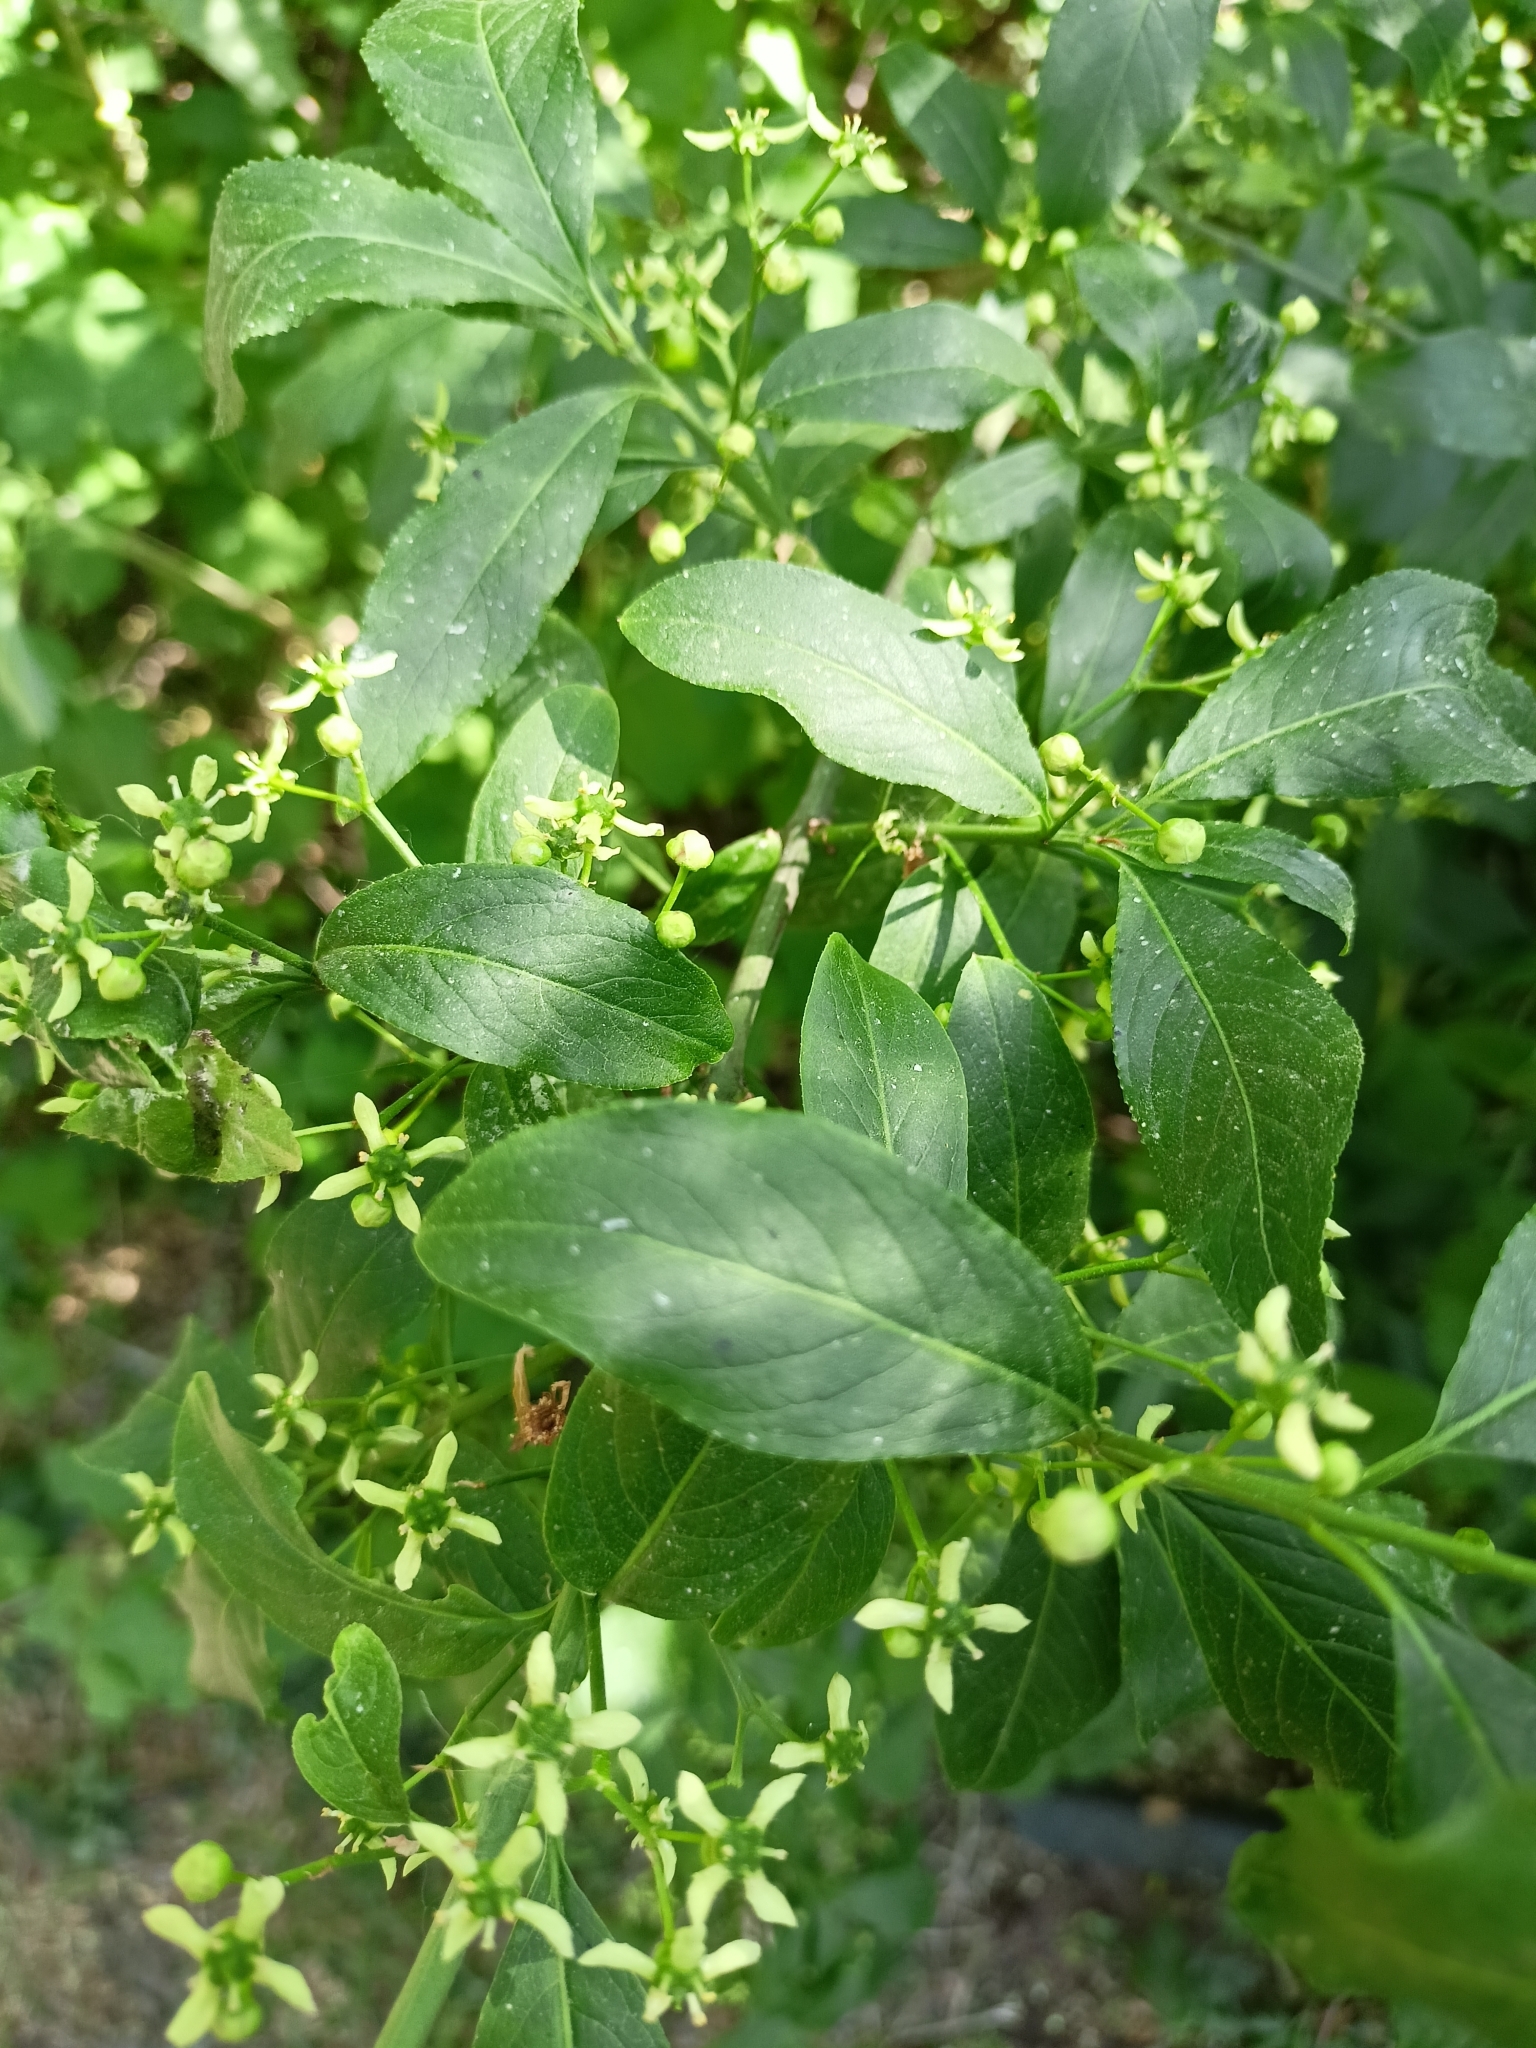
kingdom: Plantae
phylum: Tracheophyta
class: Magnoliopsida
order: Celastrales
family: Celastraceae
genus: Euonymus
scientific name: Euonymus europaeus
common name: Spindle
